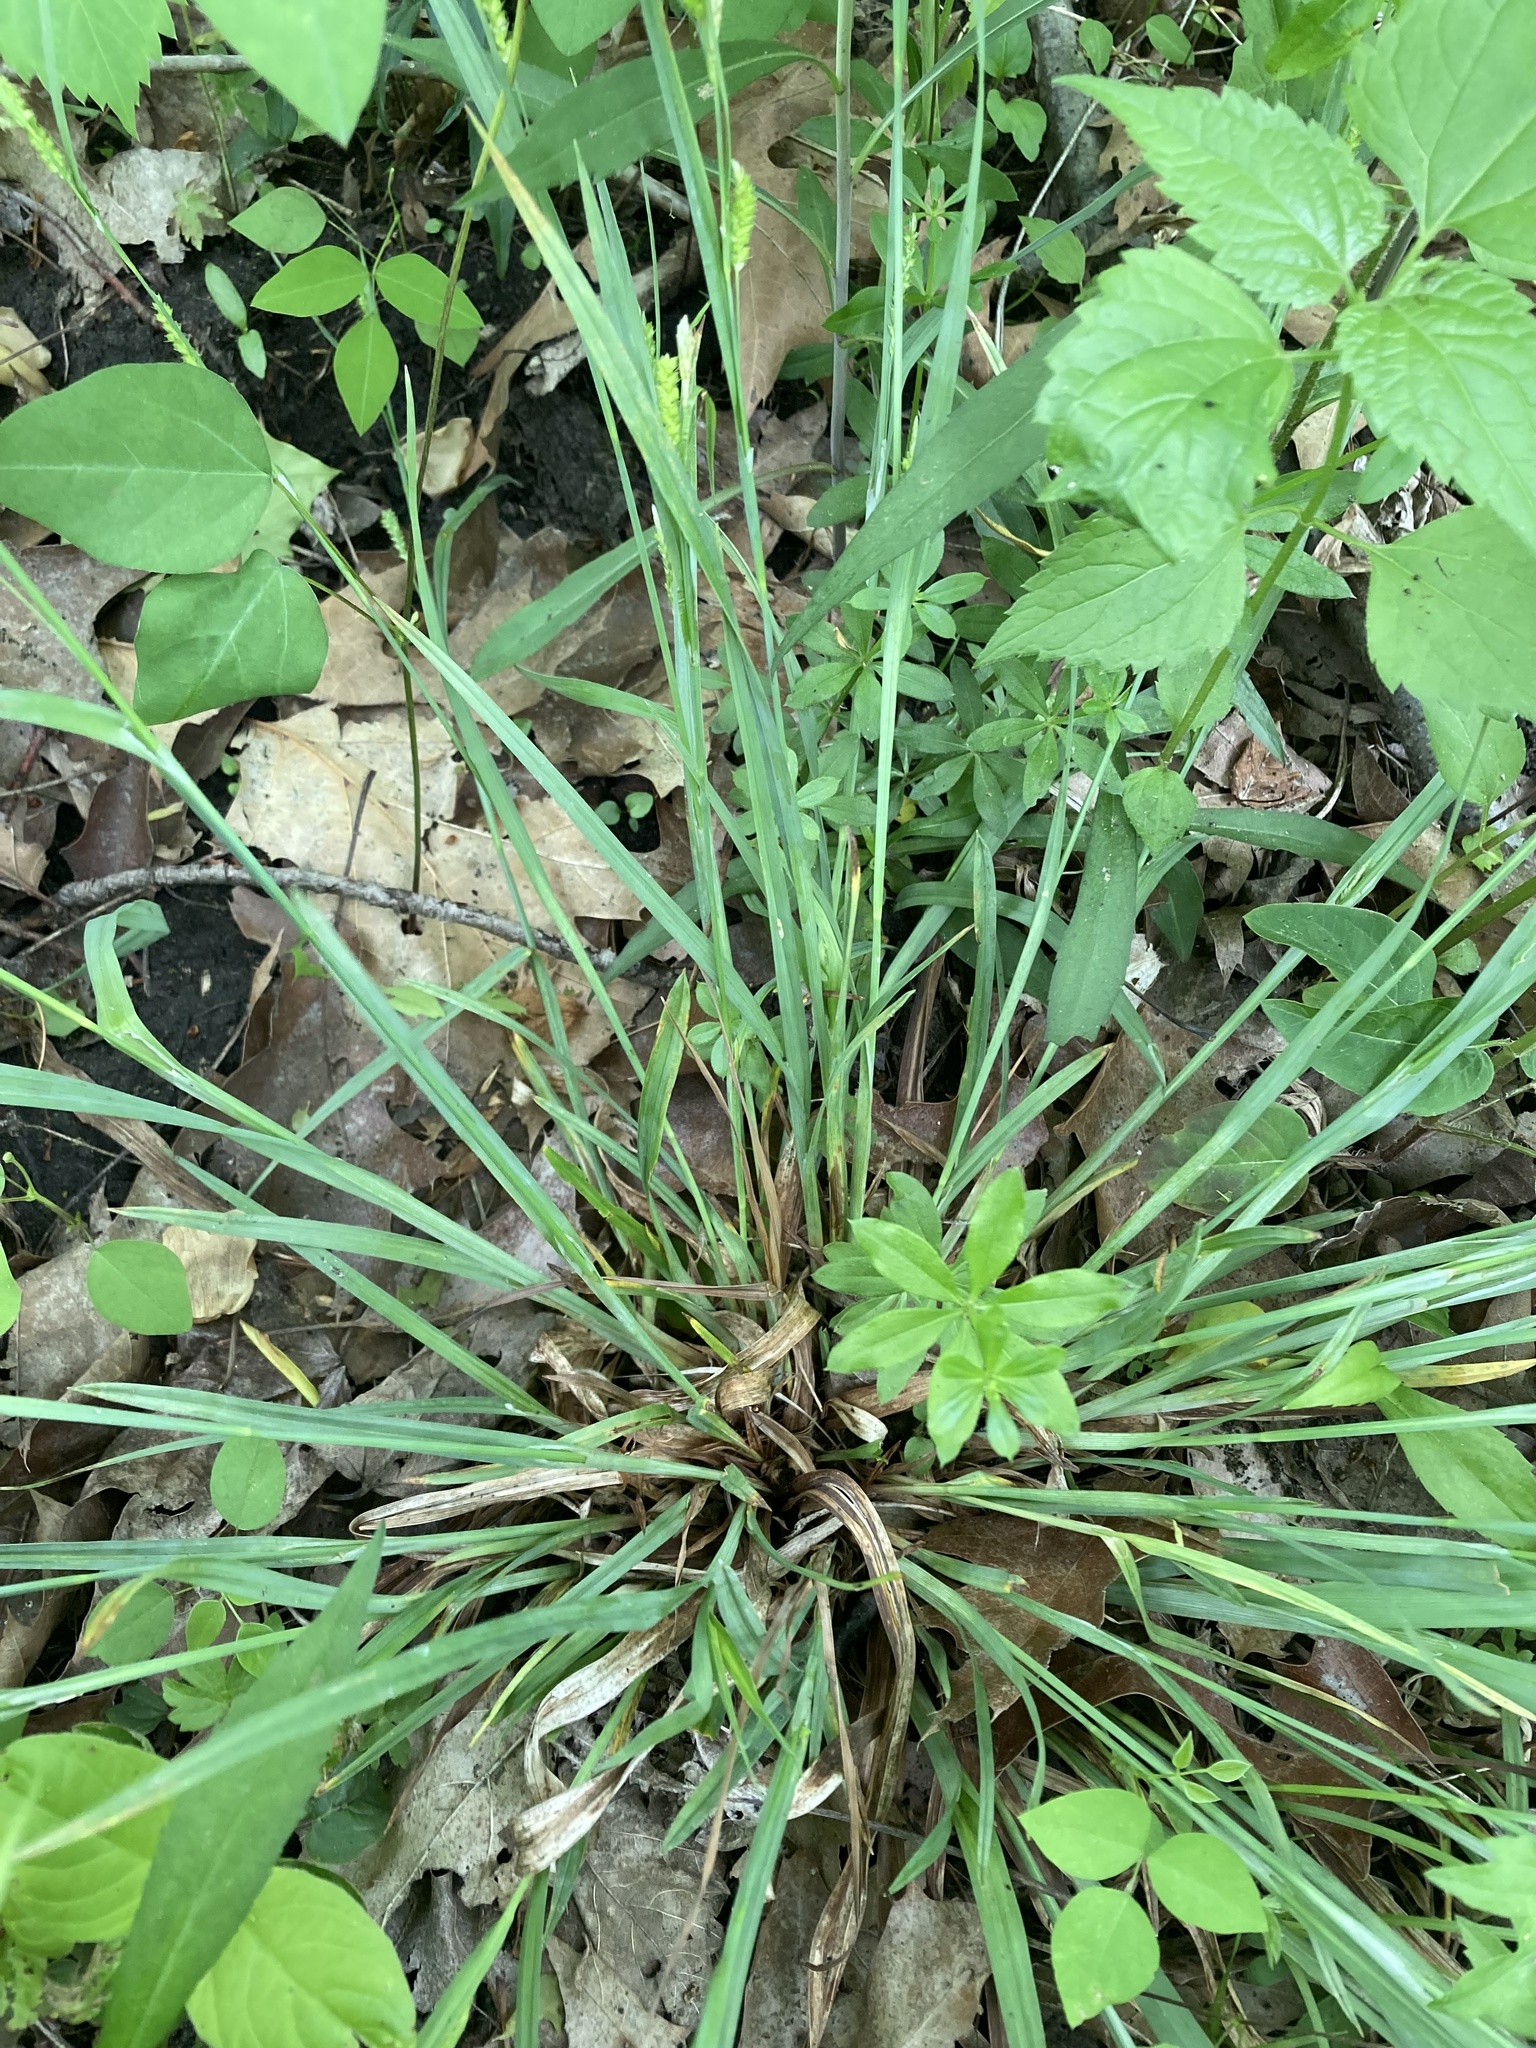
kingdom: Plantae
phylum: Tracheophyta
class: Liliopsida
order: Poales
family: Cyperaceae
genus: Carex
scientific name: Carex granularis
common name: Granular sedge
